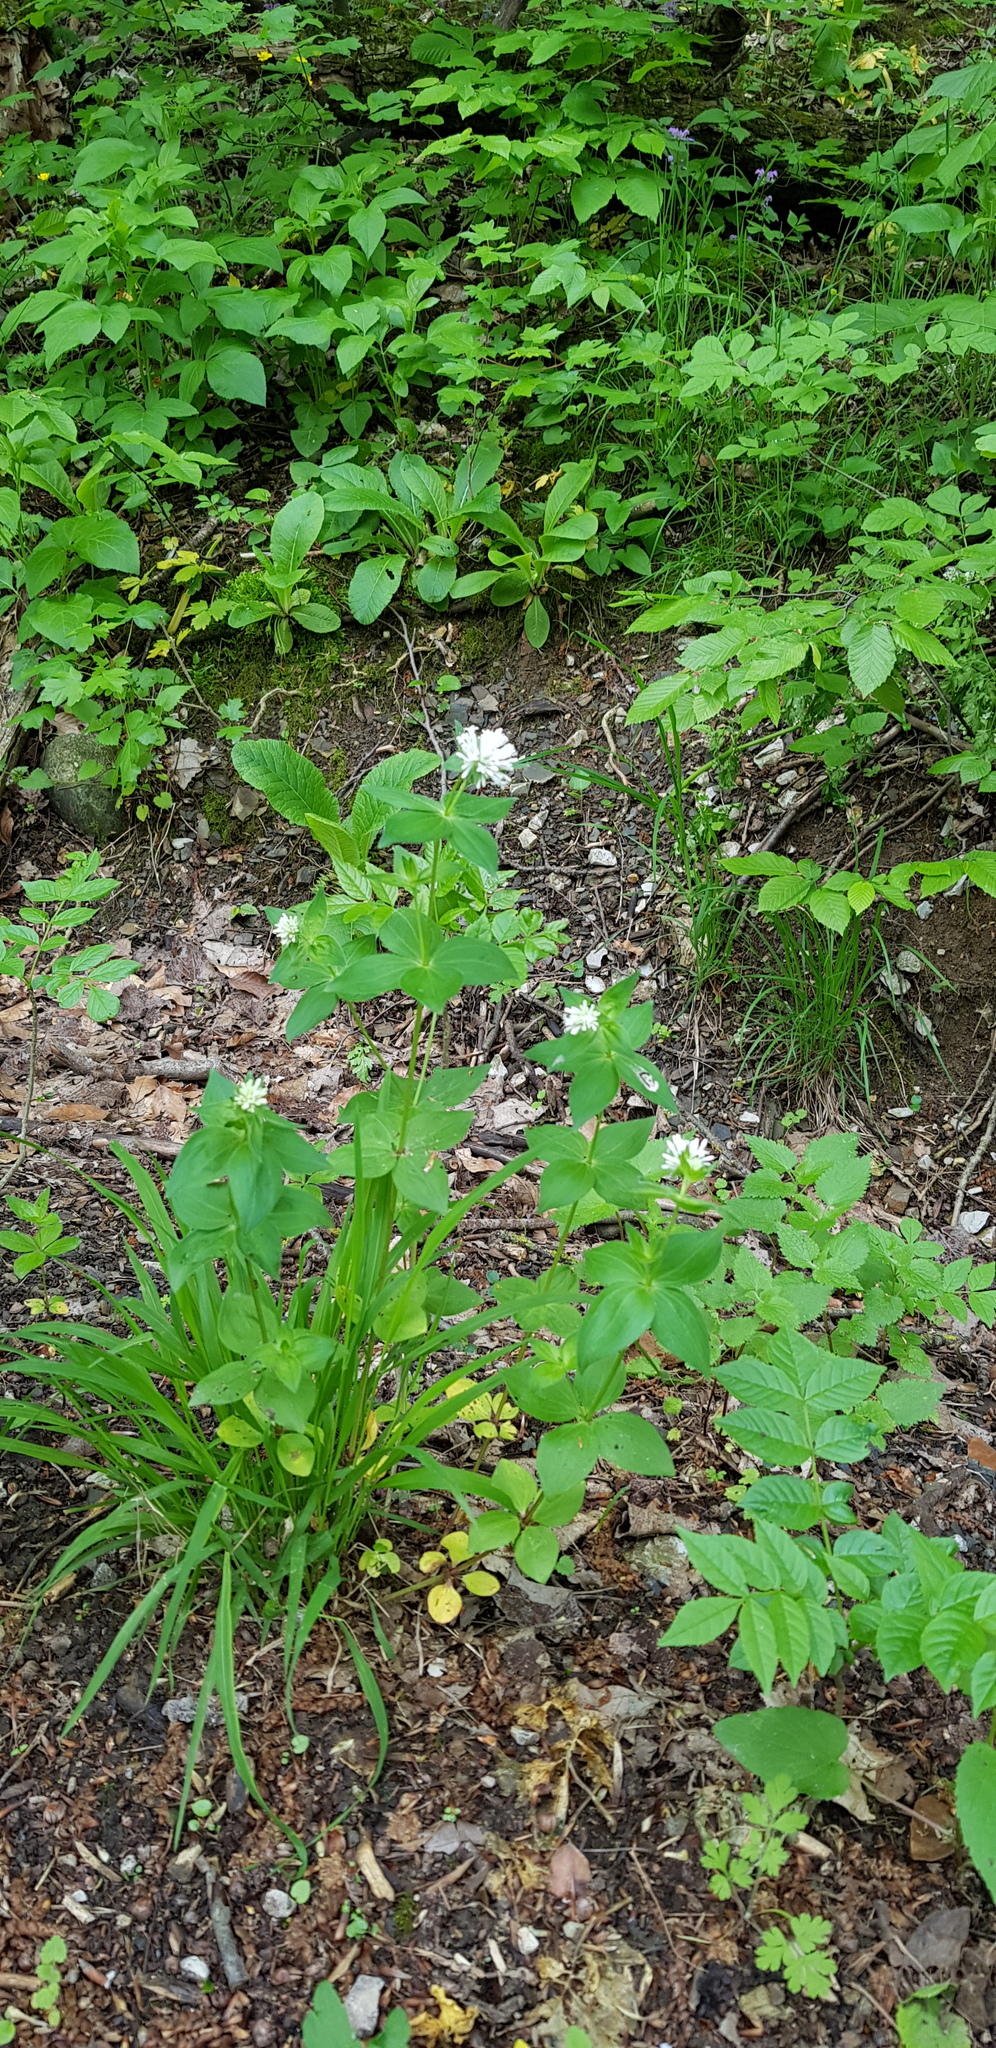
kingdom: Plantae
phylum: Tracheophyta
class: Magnoliopsida
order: Gentianales
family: Rubiaceae
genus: Asperula
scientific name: Asperula taurina
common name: Pink woodruff
